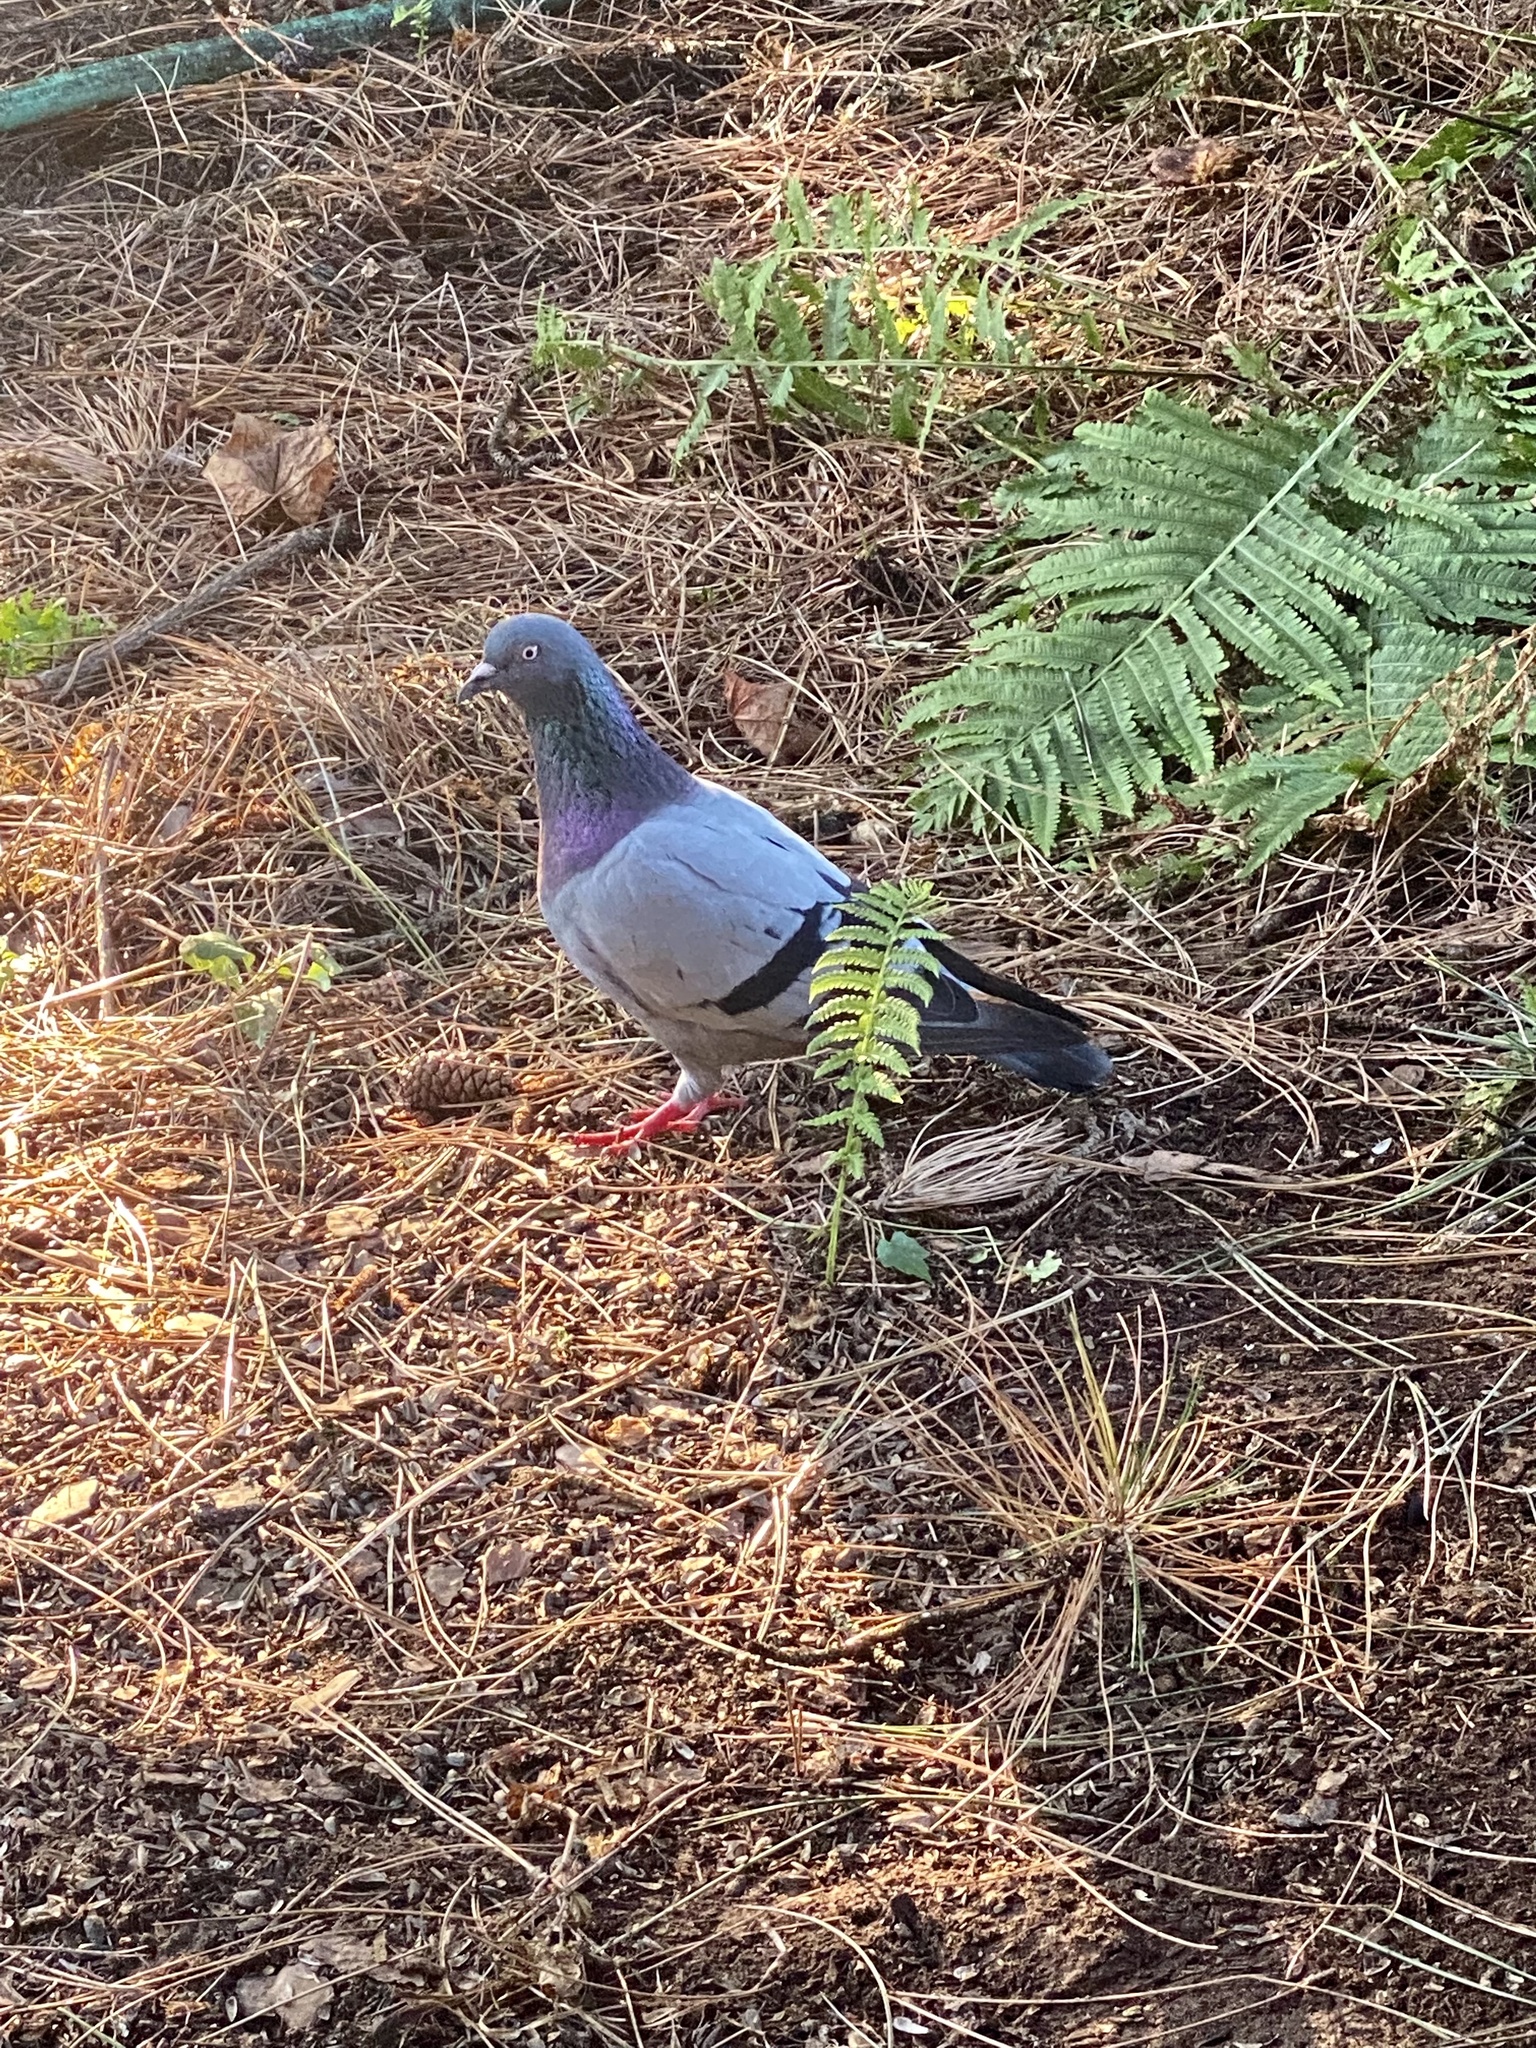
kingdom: Animalia
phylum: Chordata
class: Aves
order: Columbiformes
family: Columbidae
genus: Columba
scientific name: Columba livia
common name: Rock pigeon
